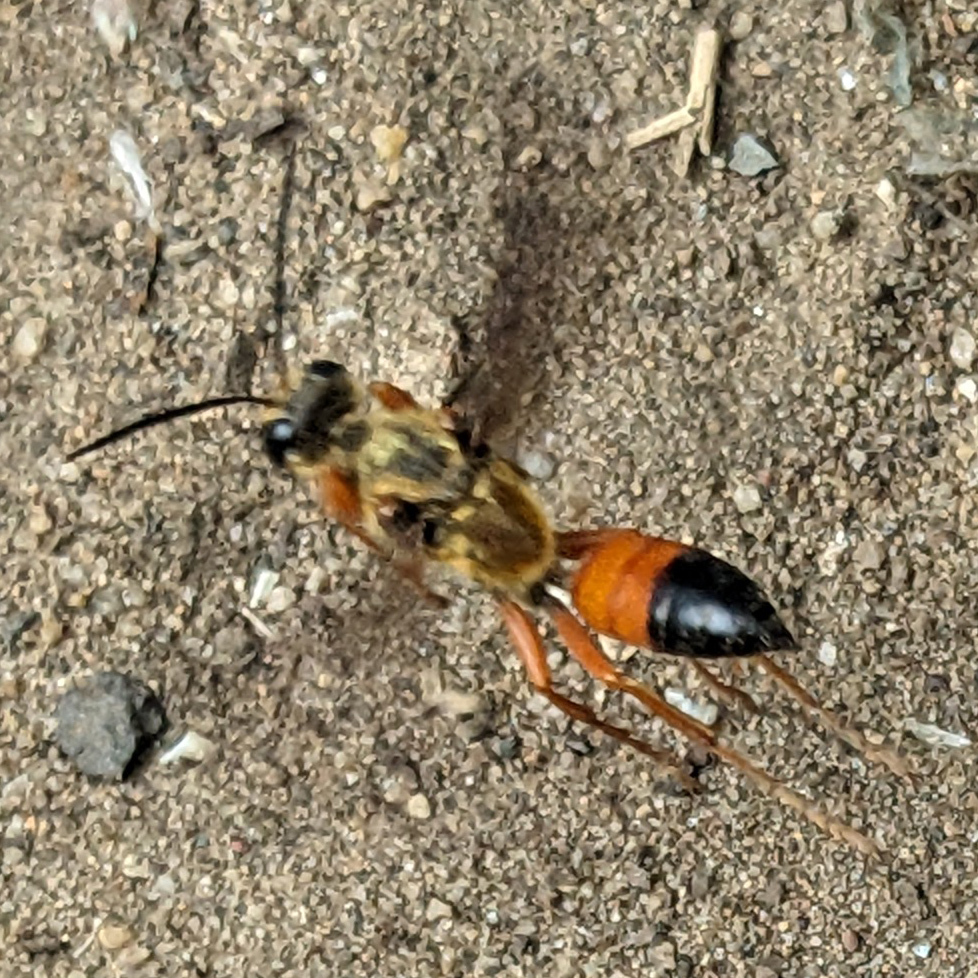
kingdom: Animalia
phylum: Arthropoda
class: Insecta
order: Hymenoptera
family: Sphecidae
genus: Sphex
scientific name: Sphex ichneumoneus
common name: Great golden digger wasp
